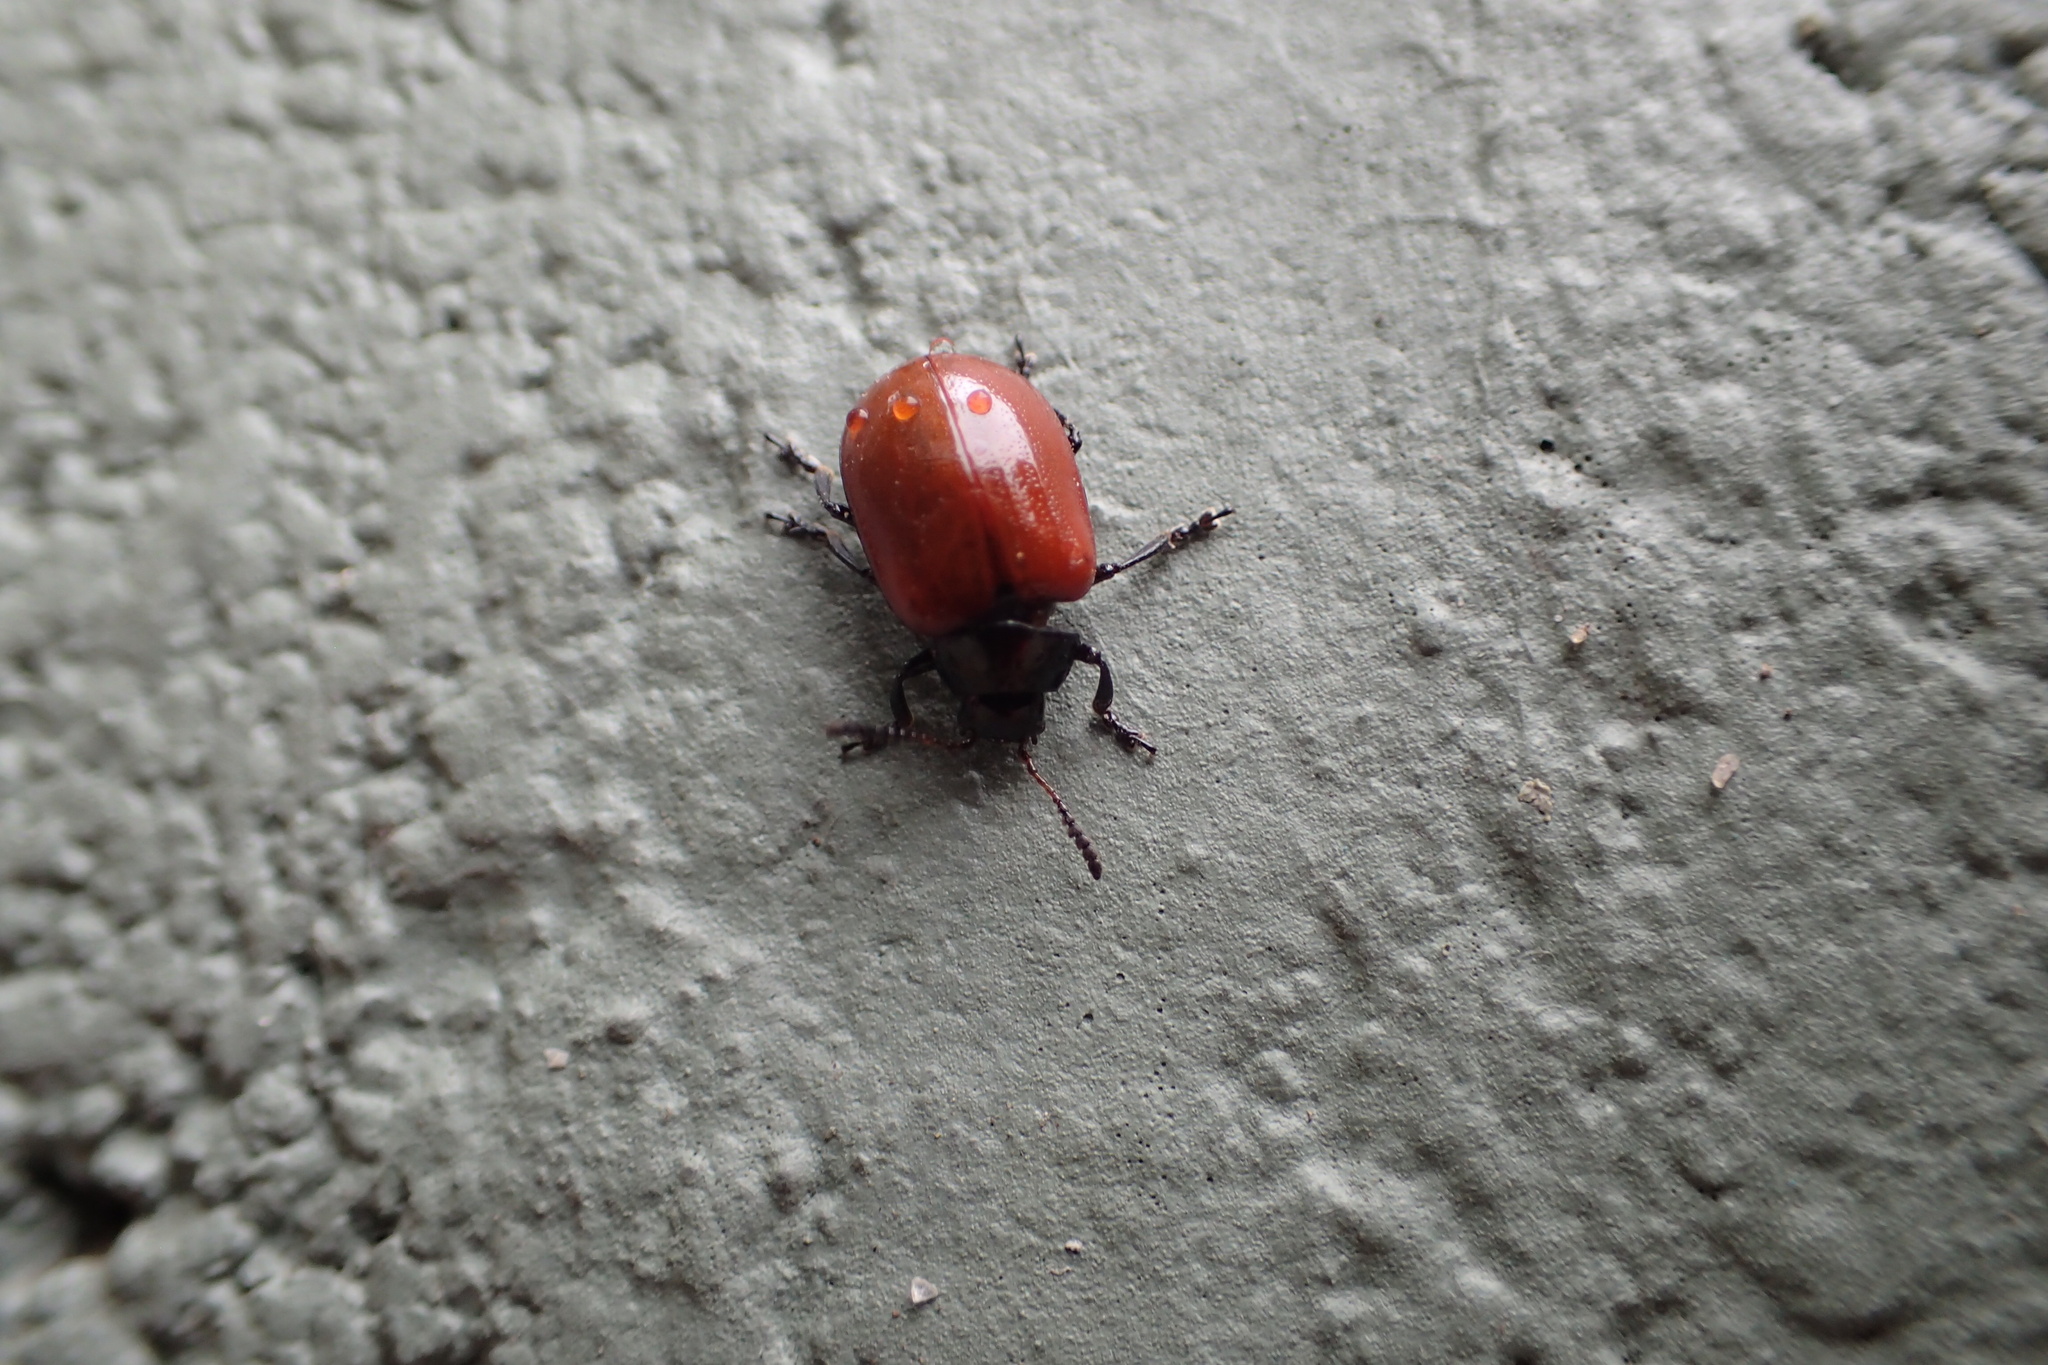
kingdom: Animalia
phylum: Arthropoda
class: Insecta
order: Coleoptera
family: Chrysomelidae
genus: Plagiodera
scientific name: Plagiodera
